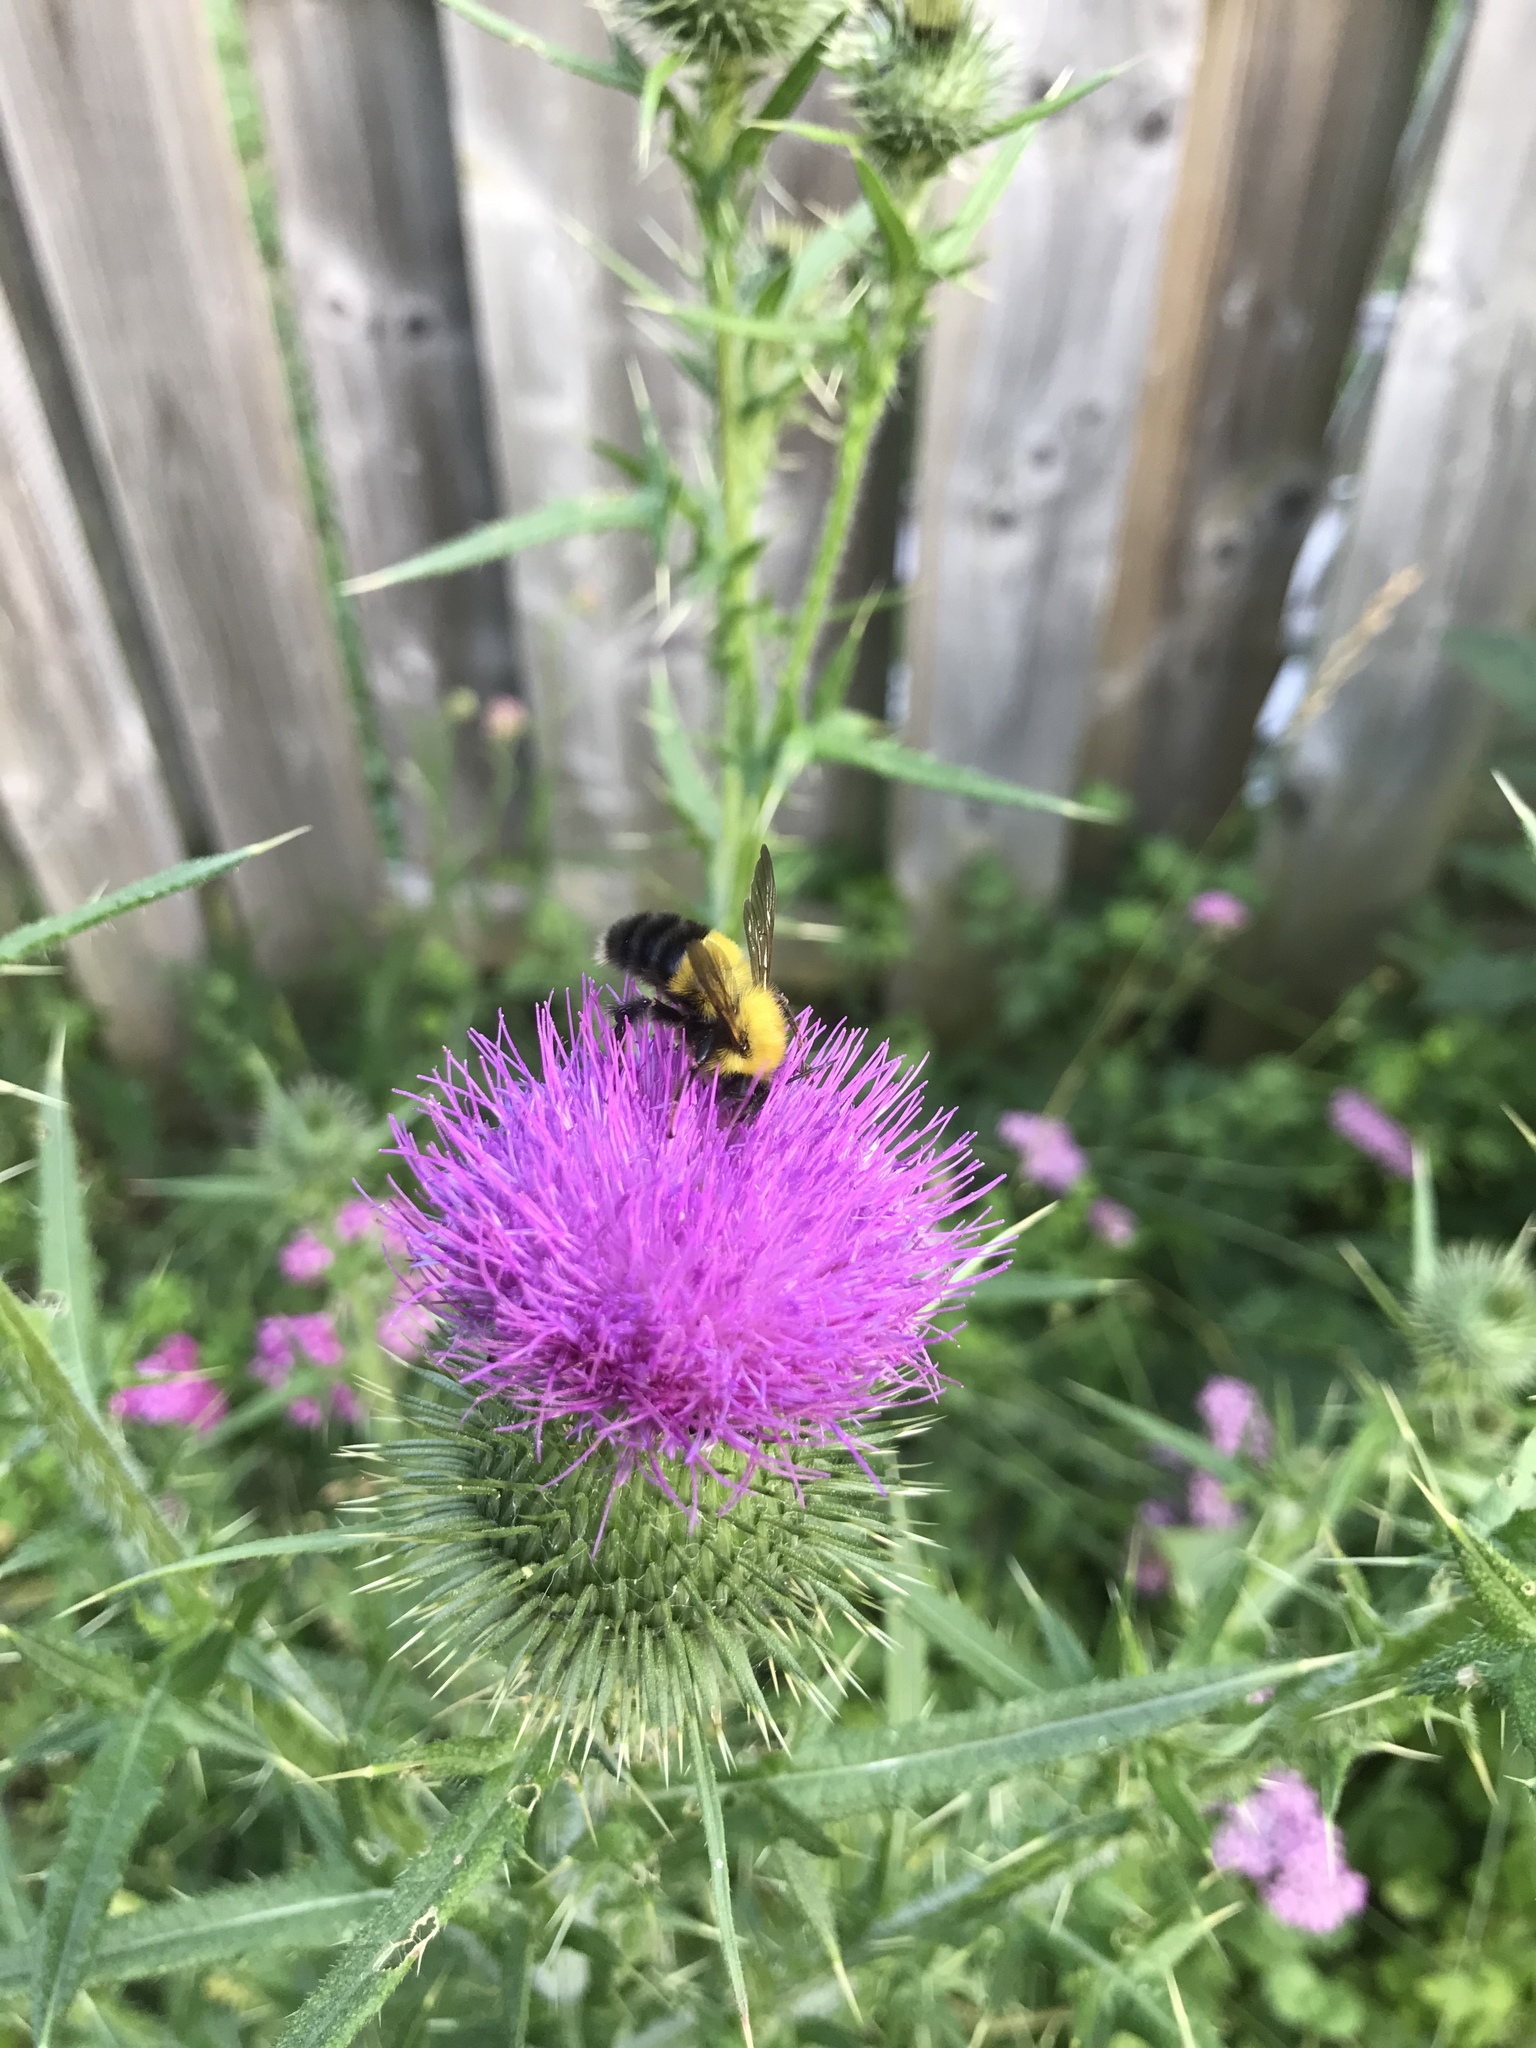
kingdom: Animalia
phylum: Arthropoda
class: Insecta
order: Hymenoptera
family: Apidae
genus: Bombus
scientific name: Bombus perplexus
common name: Confusing bumble bee
